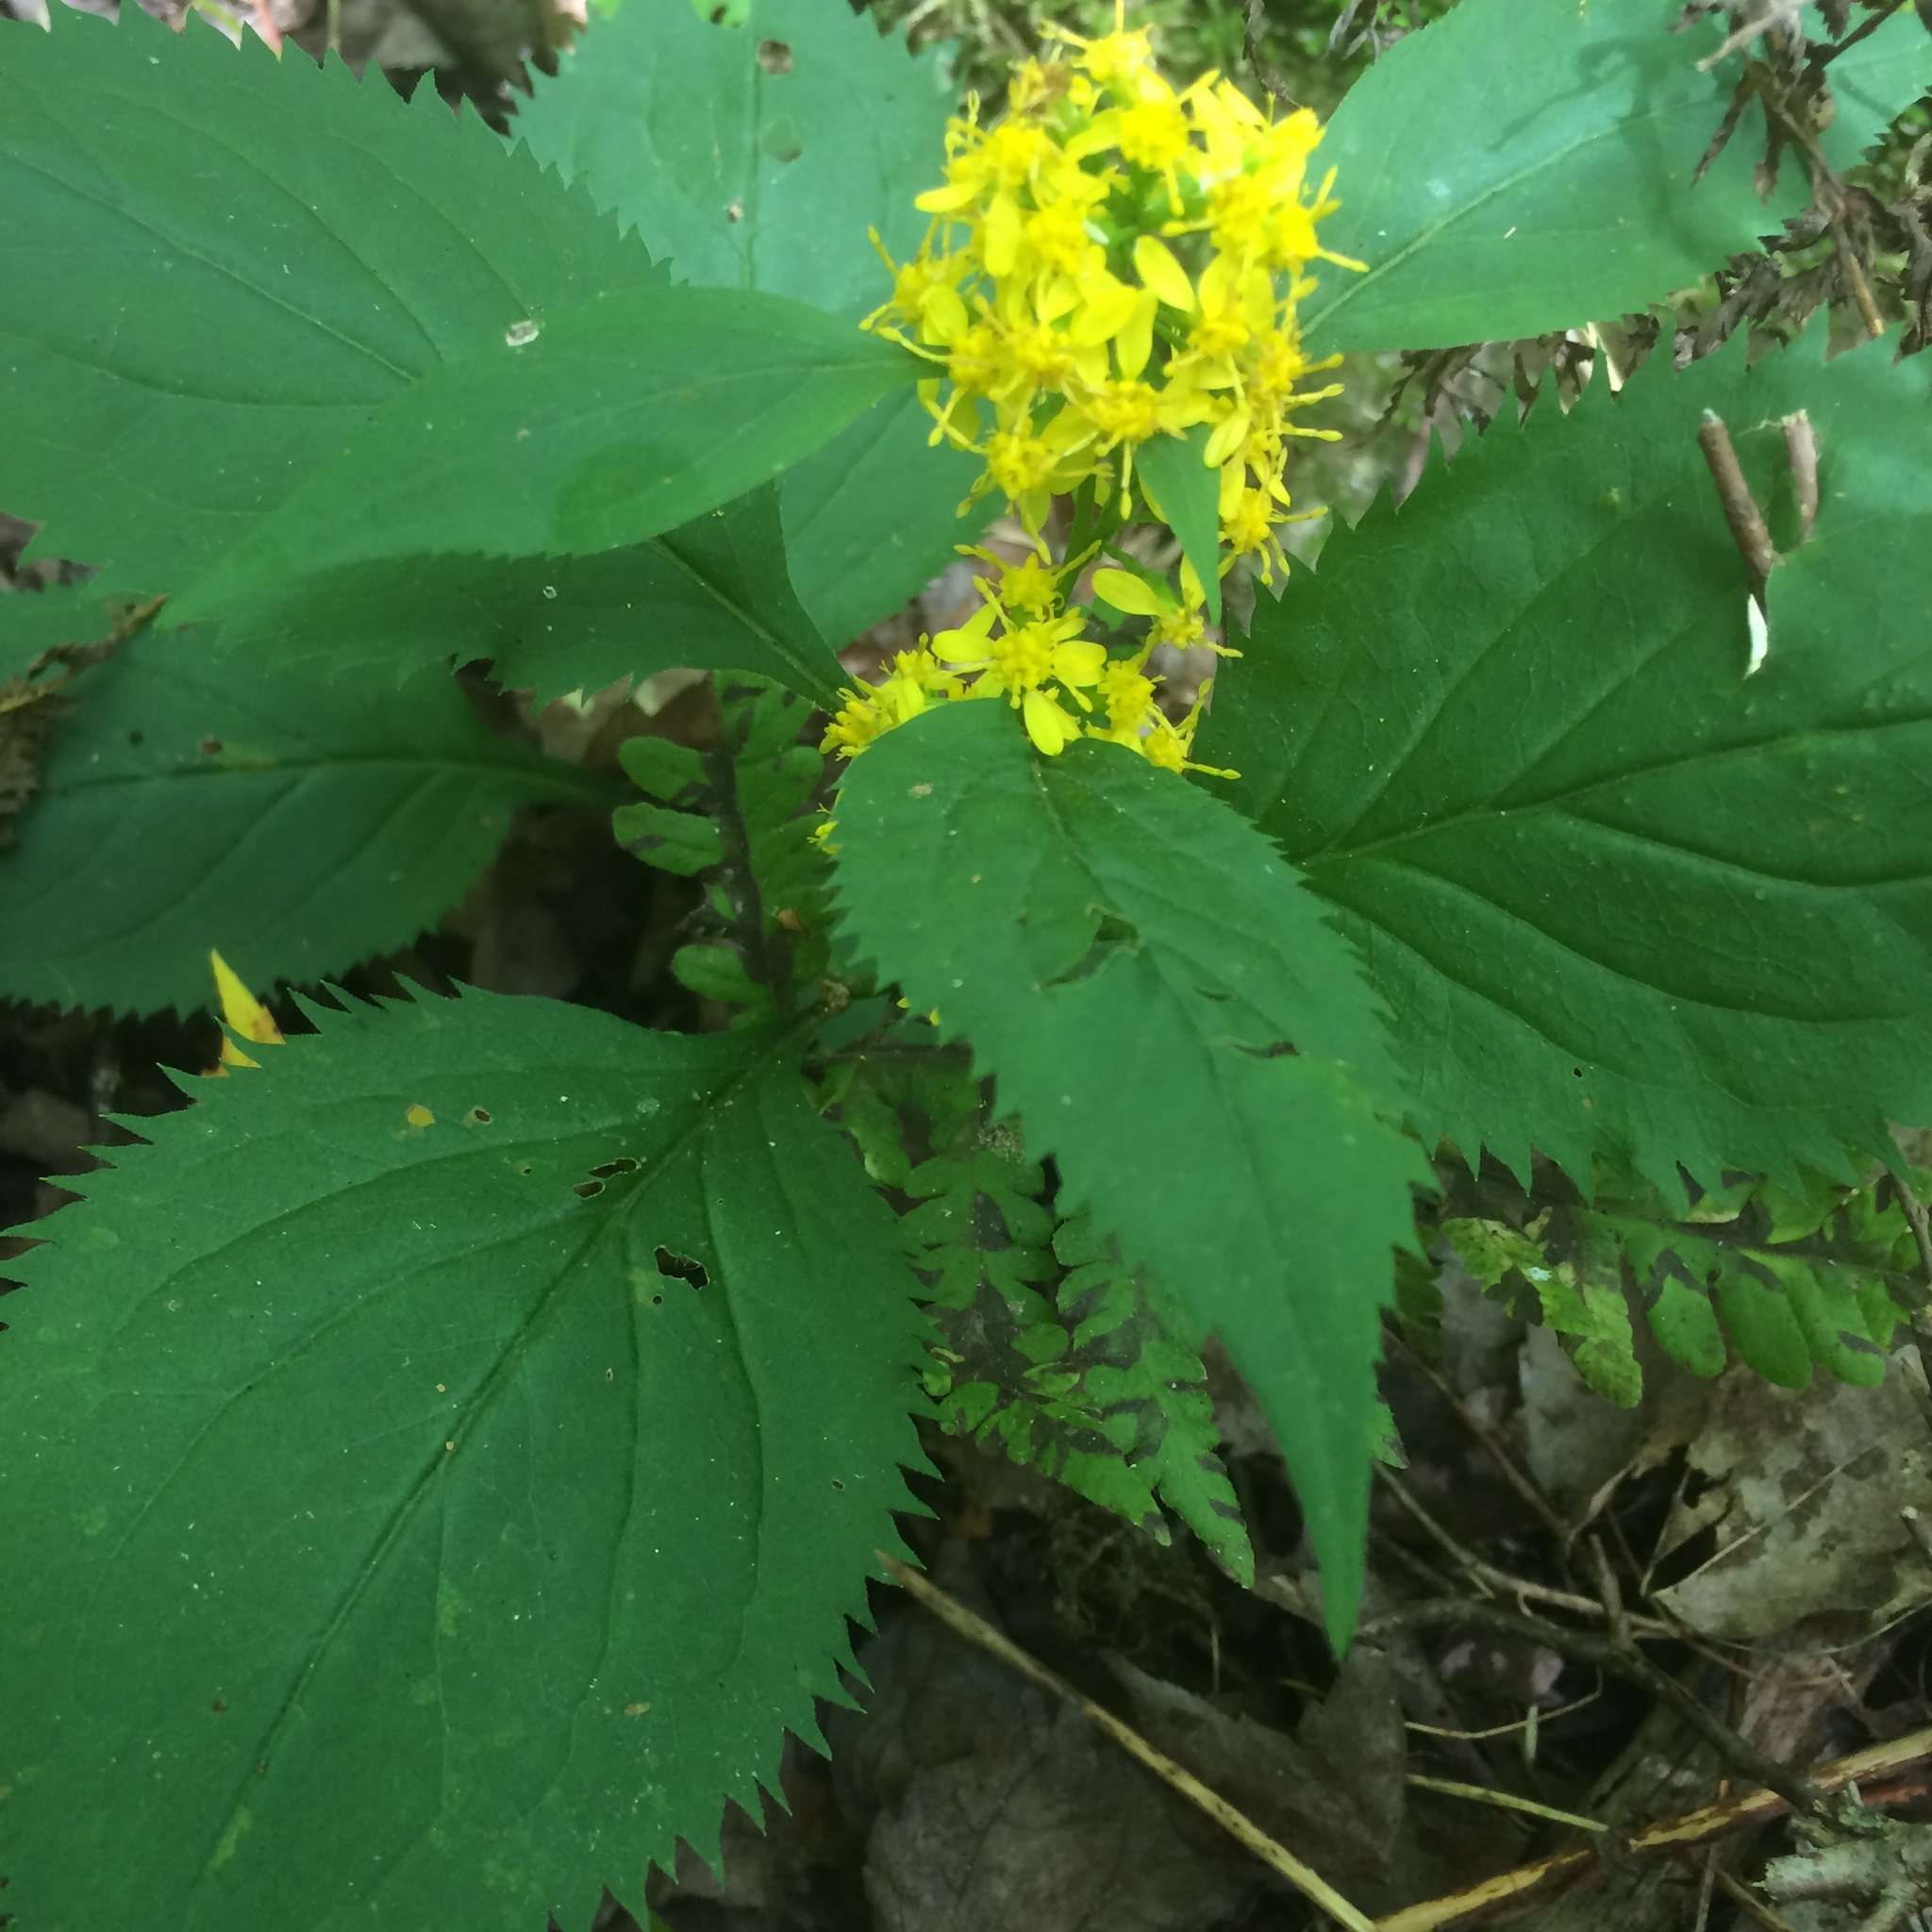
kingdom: Plantae
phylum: Tracheophyta
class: Magnoliopsida
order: Asterales
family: Asteraceae
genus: Solidago
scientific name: Solidago flexicaulis
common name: Zig-zag goldenrod
